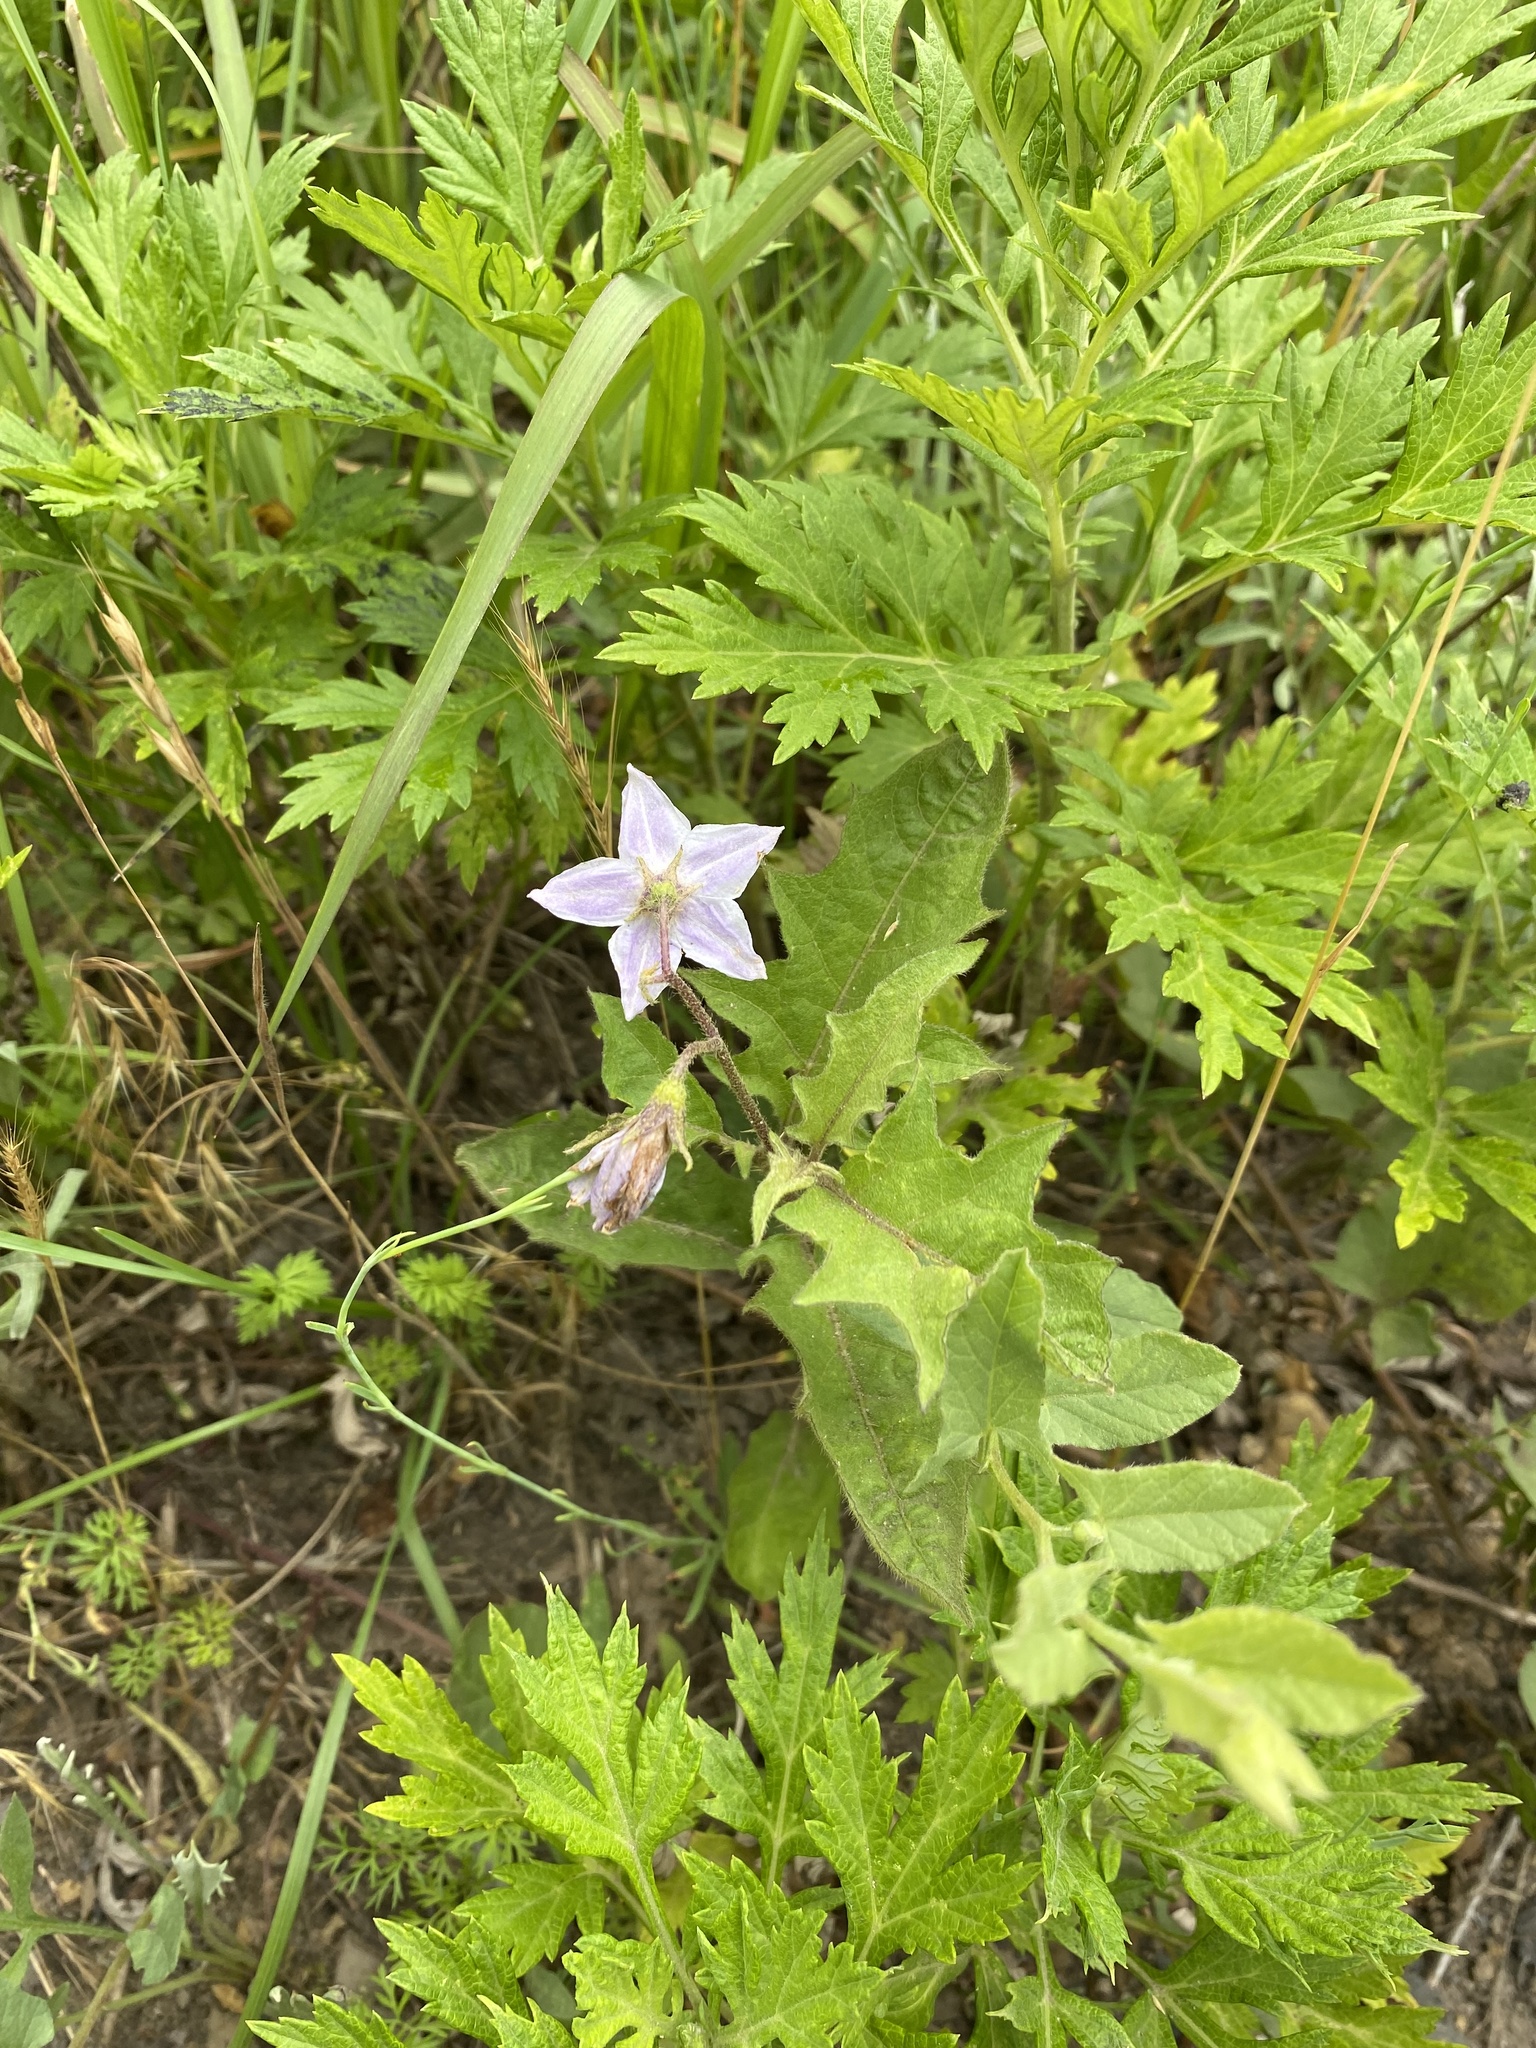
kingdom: Plantae
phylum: Tracheophyta
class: Magnoliopsida
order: Solanales
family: Solanaceae
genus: Solanum
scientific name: Solanum carolinense
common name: Horse-nettle
